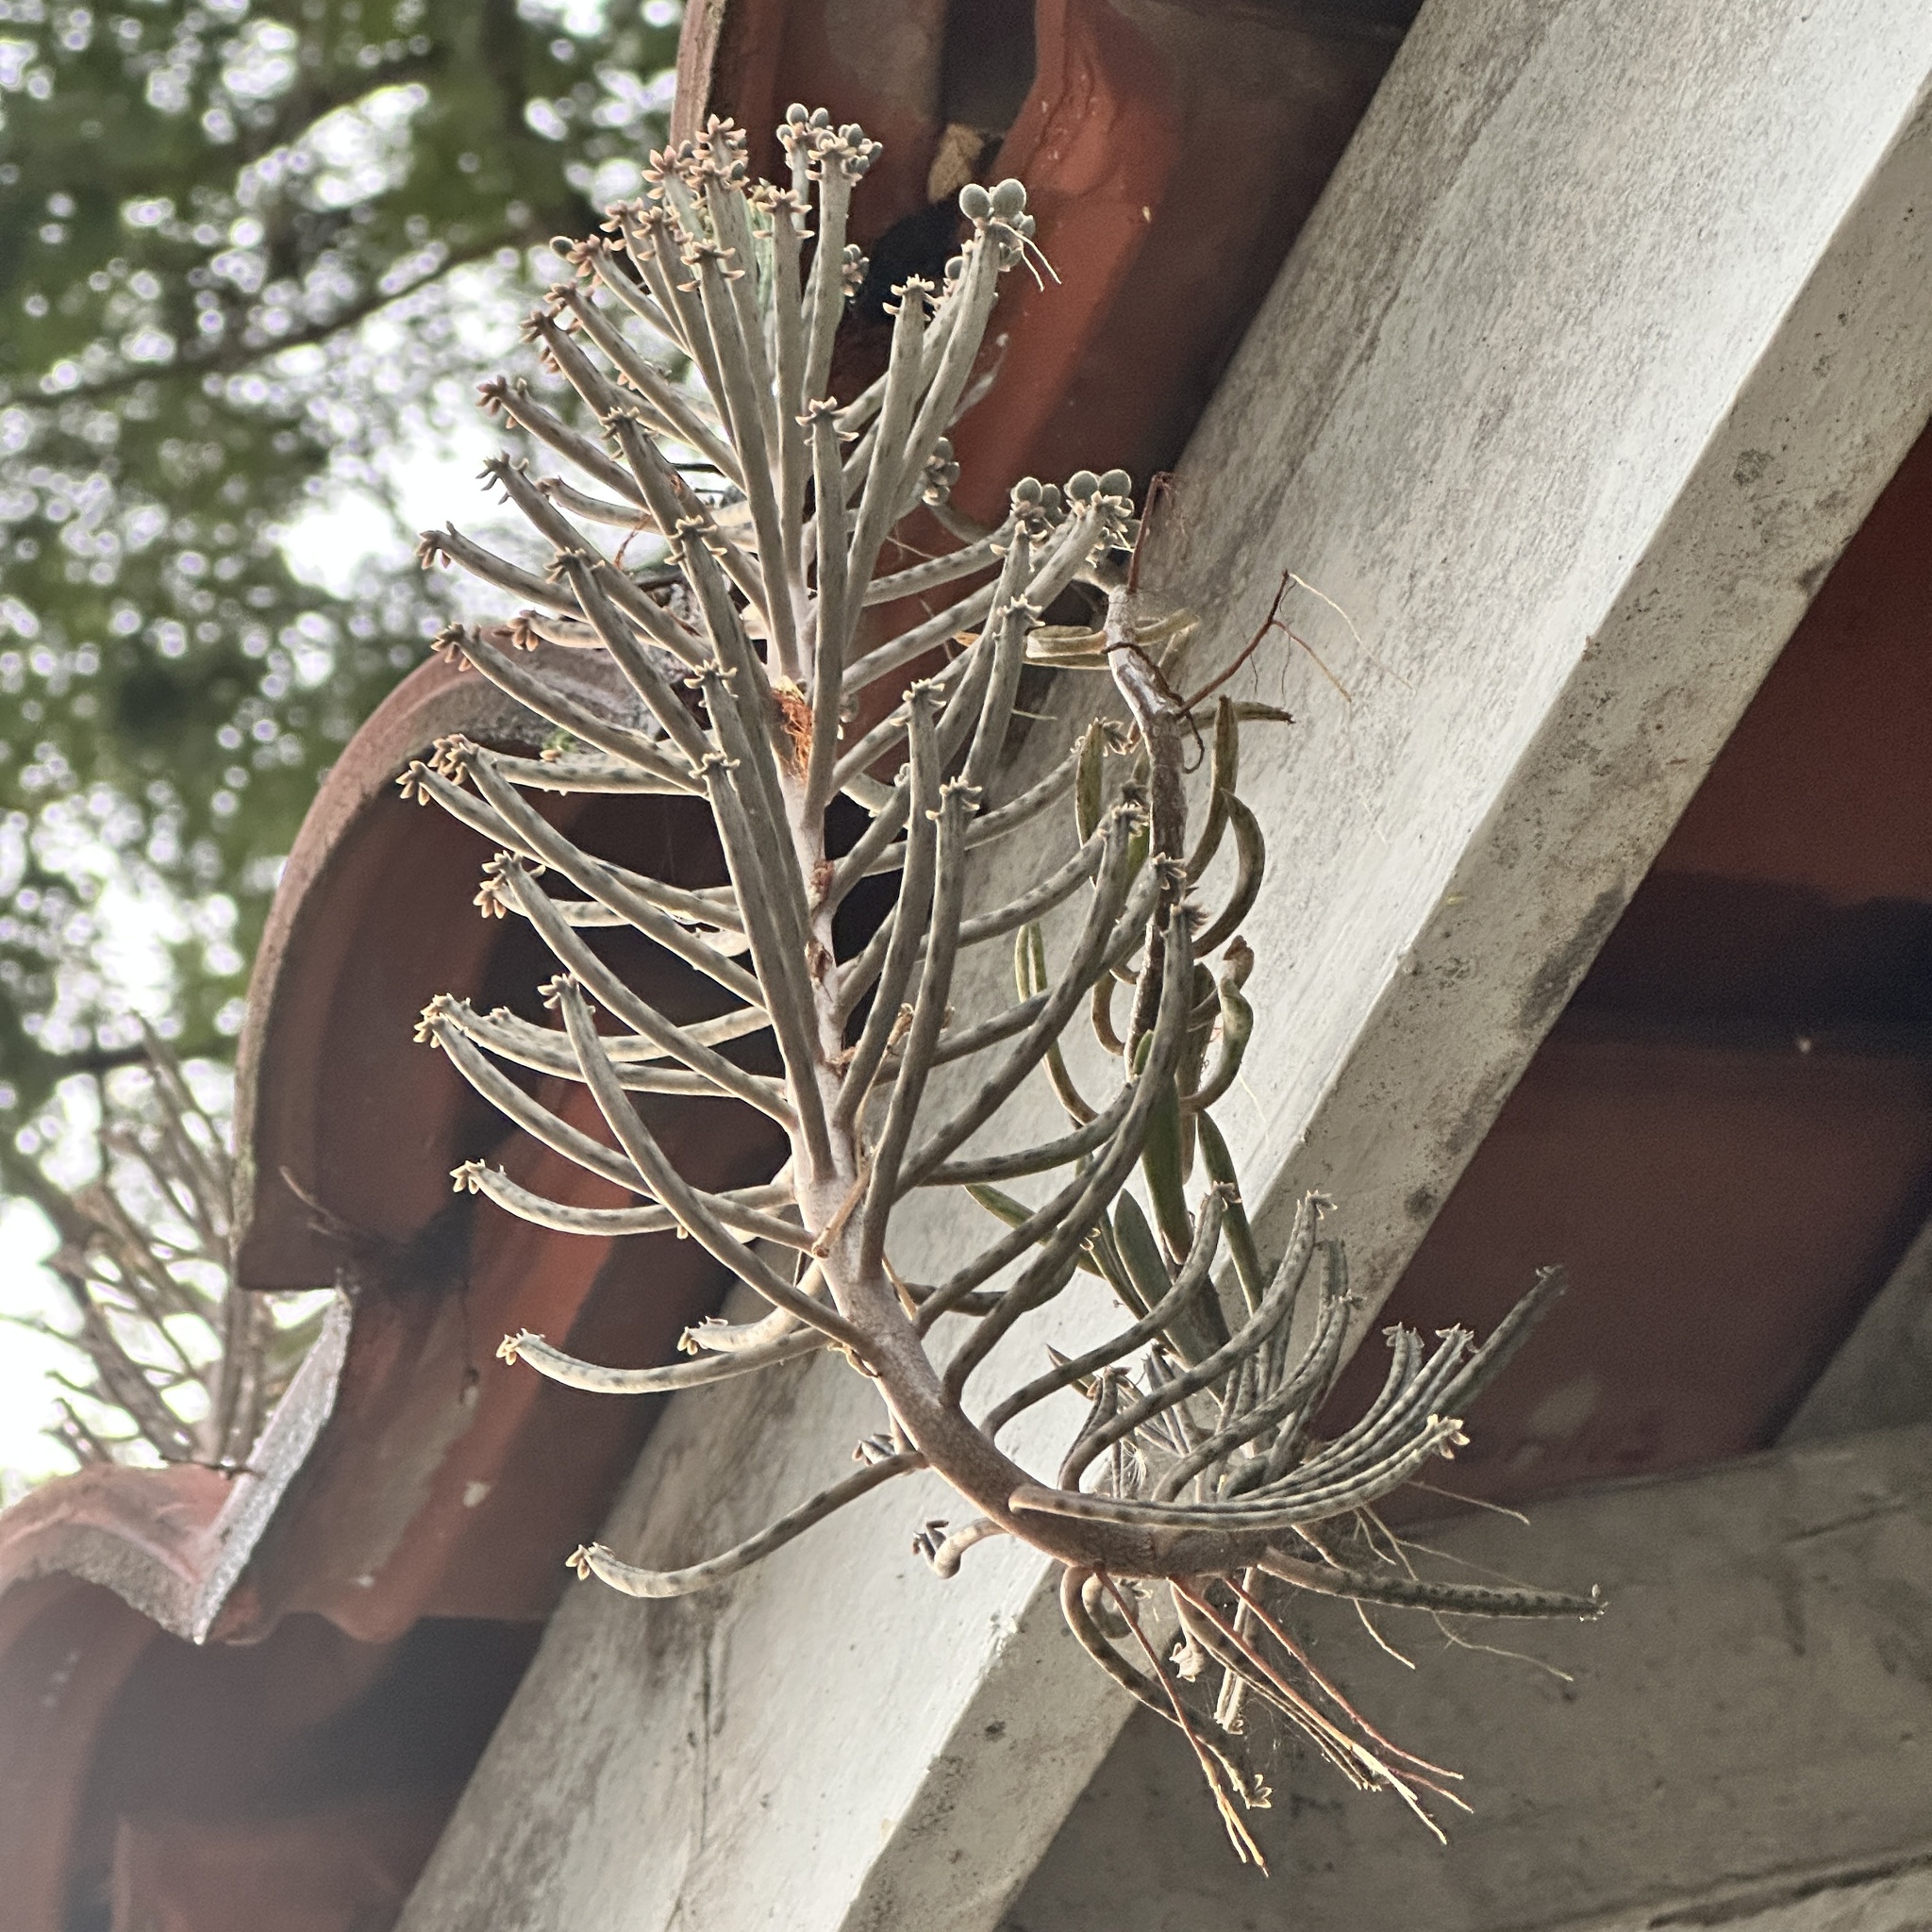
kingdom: Plantae
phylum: Tracheophyta
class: Magnoliopsida
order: Saxifragales
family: Crassulaceae
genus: Kalanchoe
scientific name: Kalanchoe delagoensis
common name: Chandelier plant
